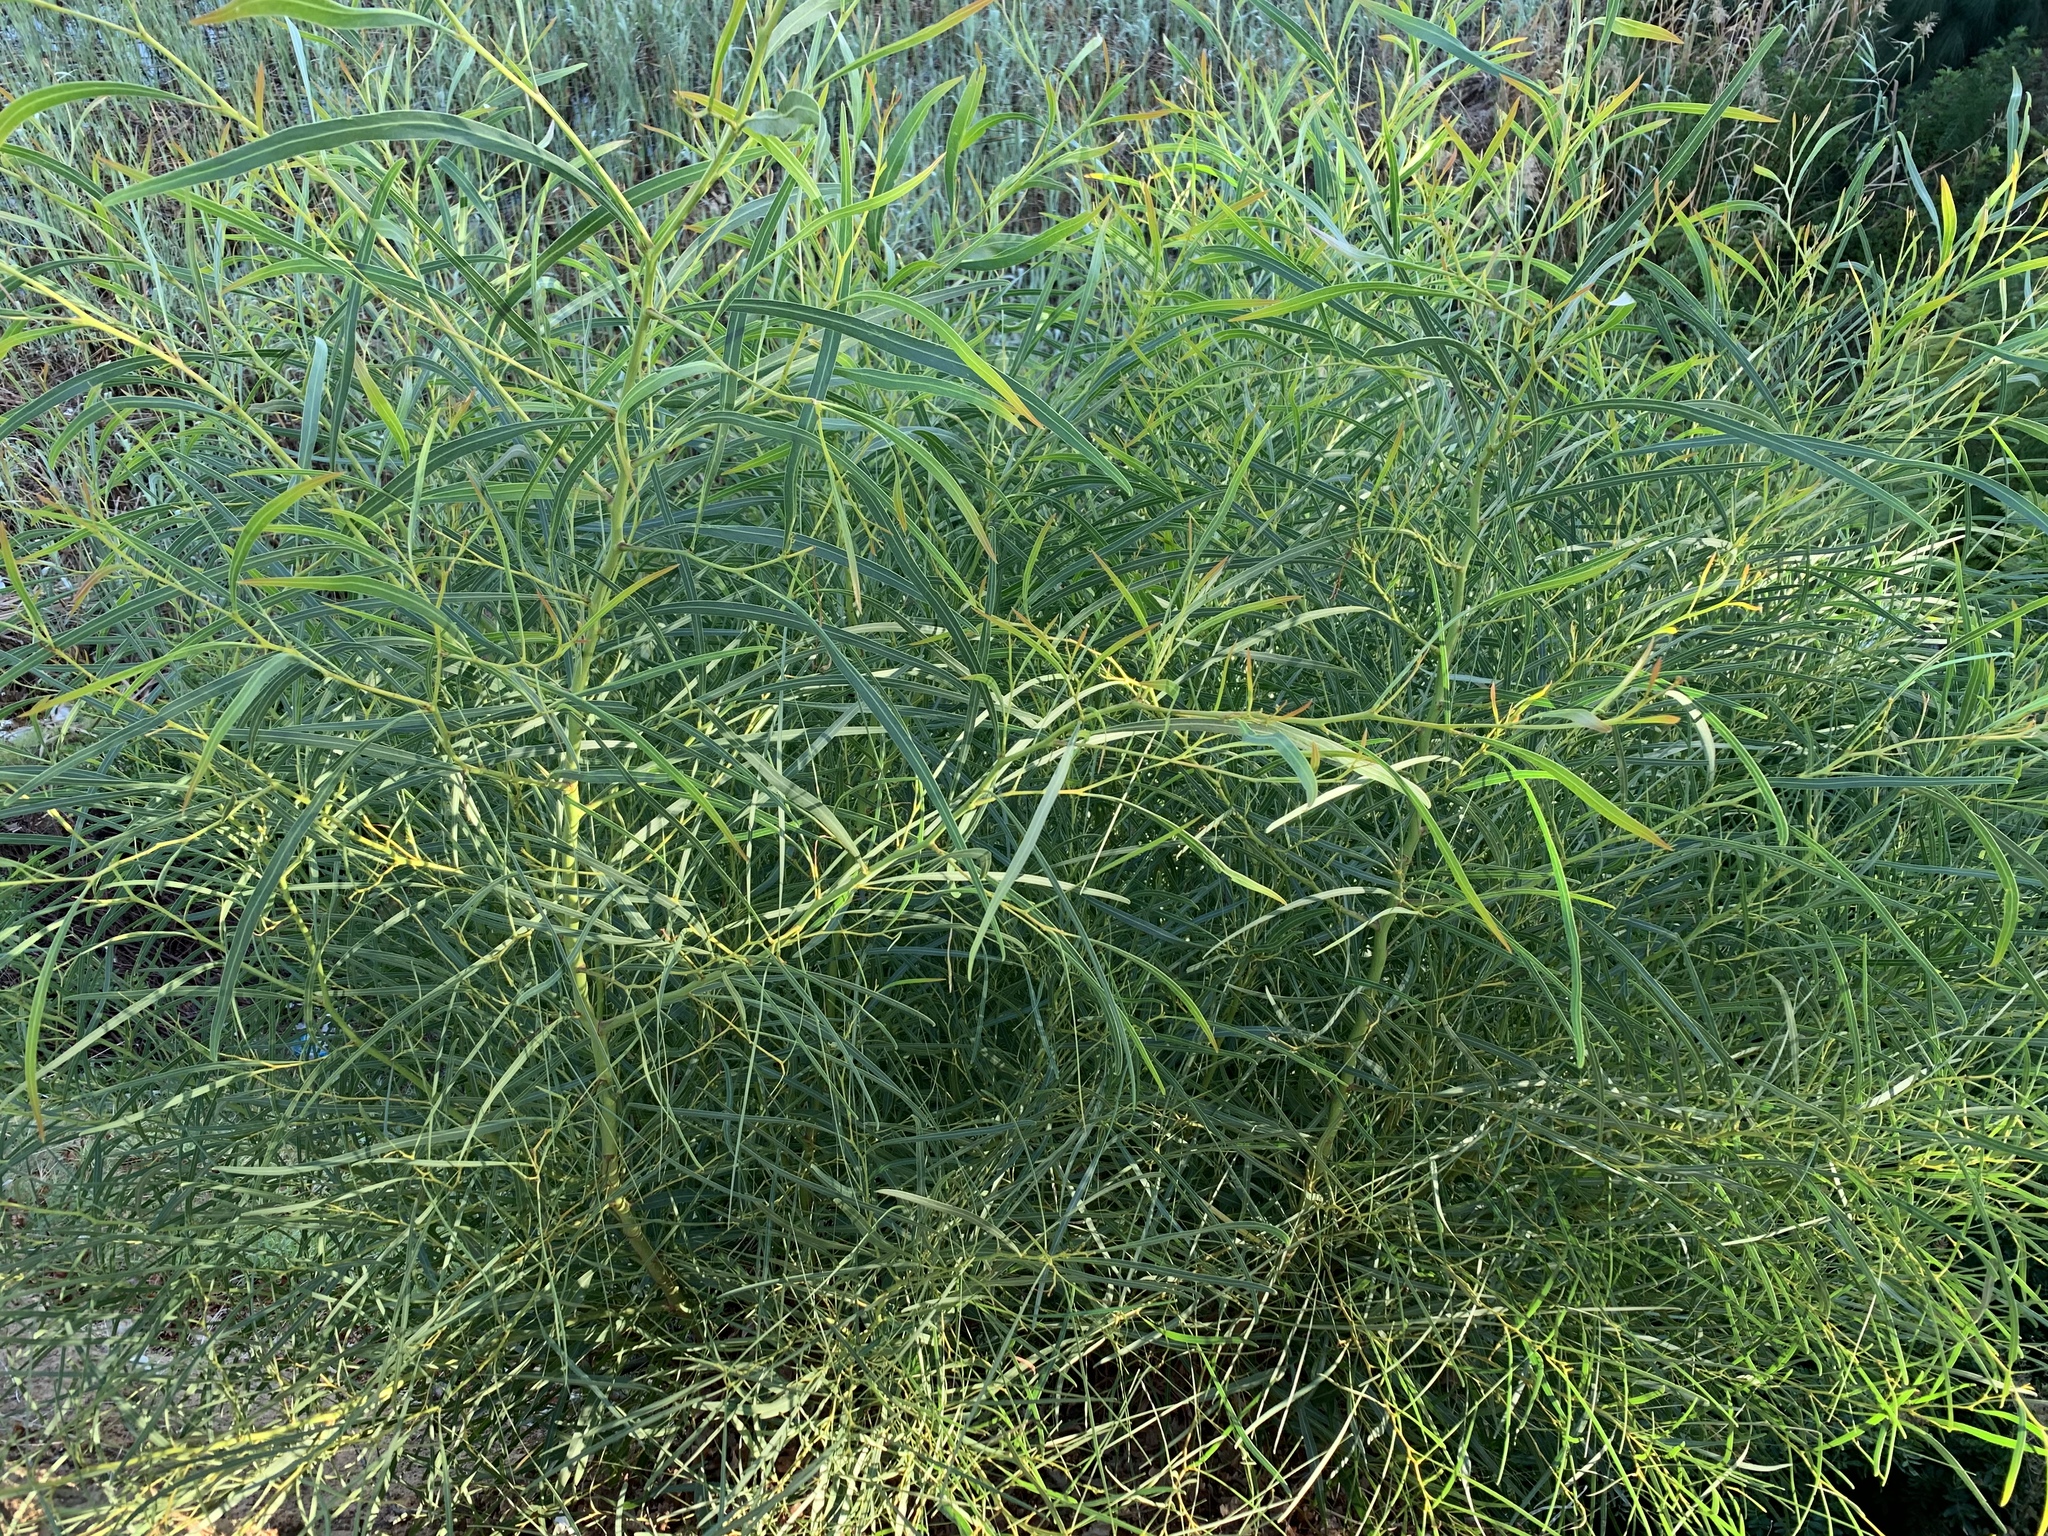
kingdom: Plantae
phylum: Tracheophyta
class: Magnoliopsida
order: Fabales
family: Fabaceae
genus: Acacia
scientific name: Acacia saligna
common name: Orange wattle
